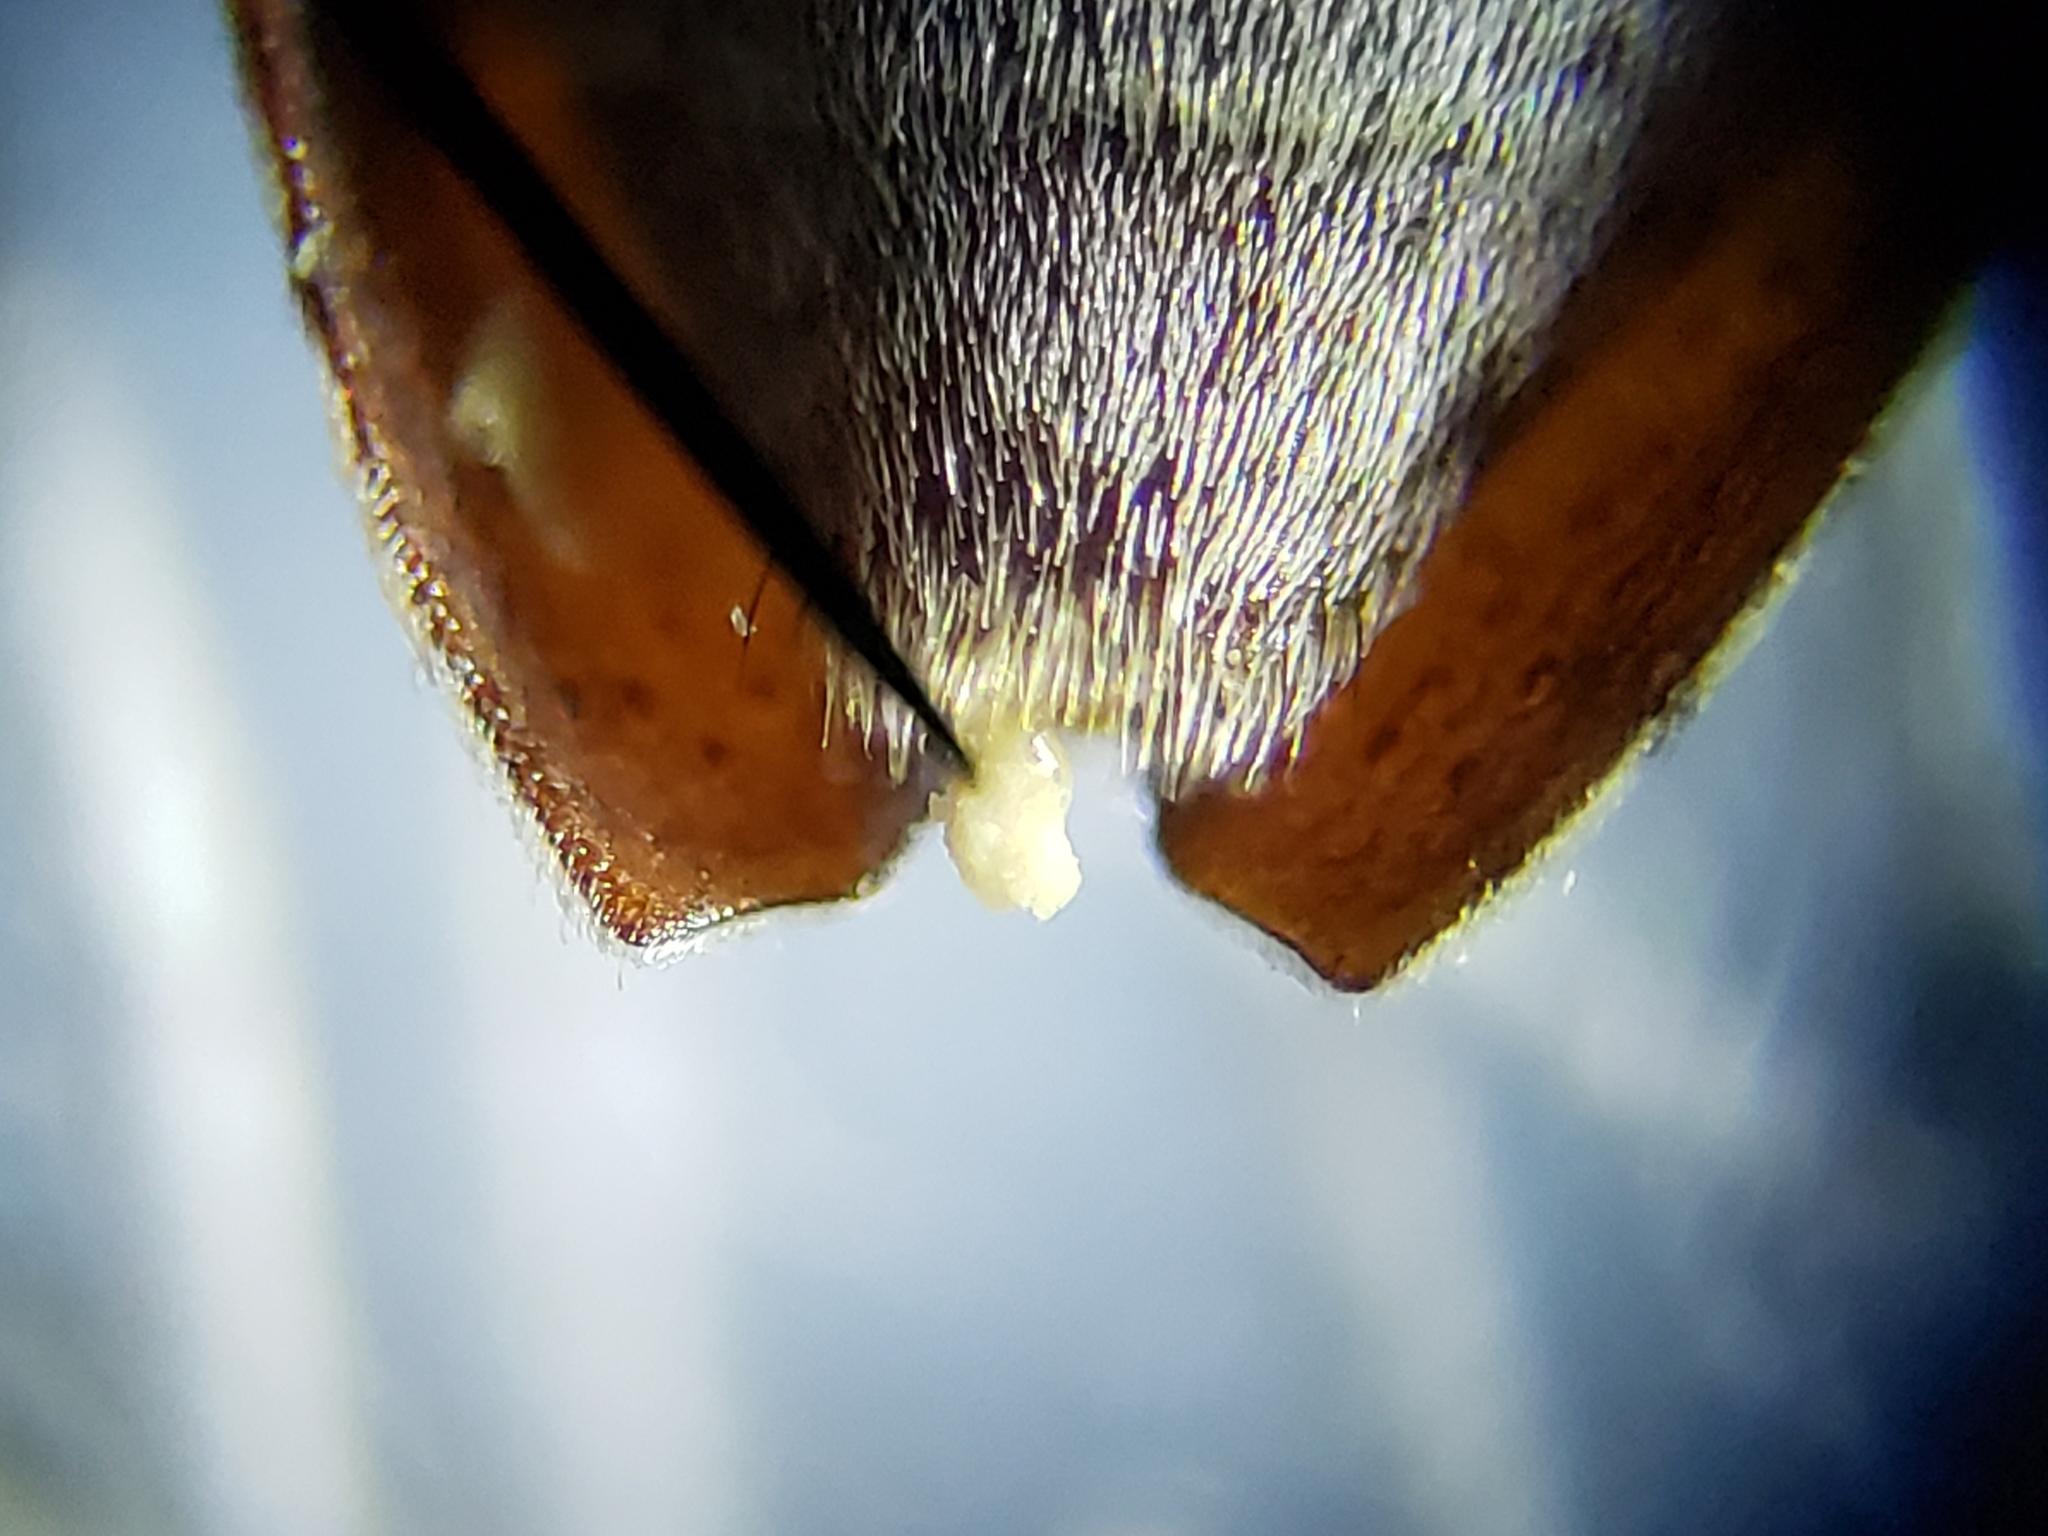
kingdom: Animalia
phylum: Arthropoda
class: Insecta
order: Coleoptera
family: Cerambycidae
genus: Sternidius
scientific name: Sternidius mimeticus
